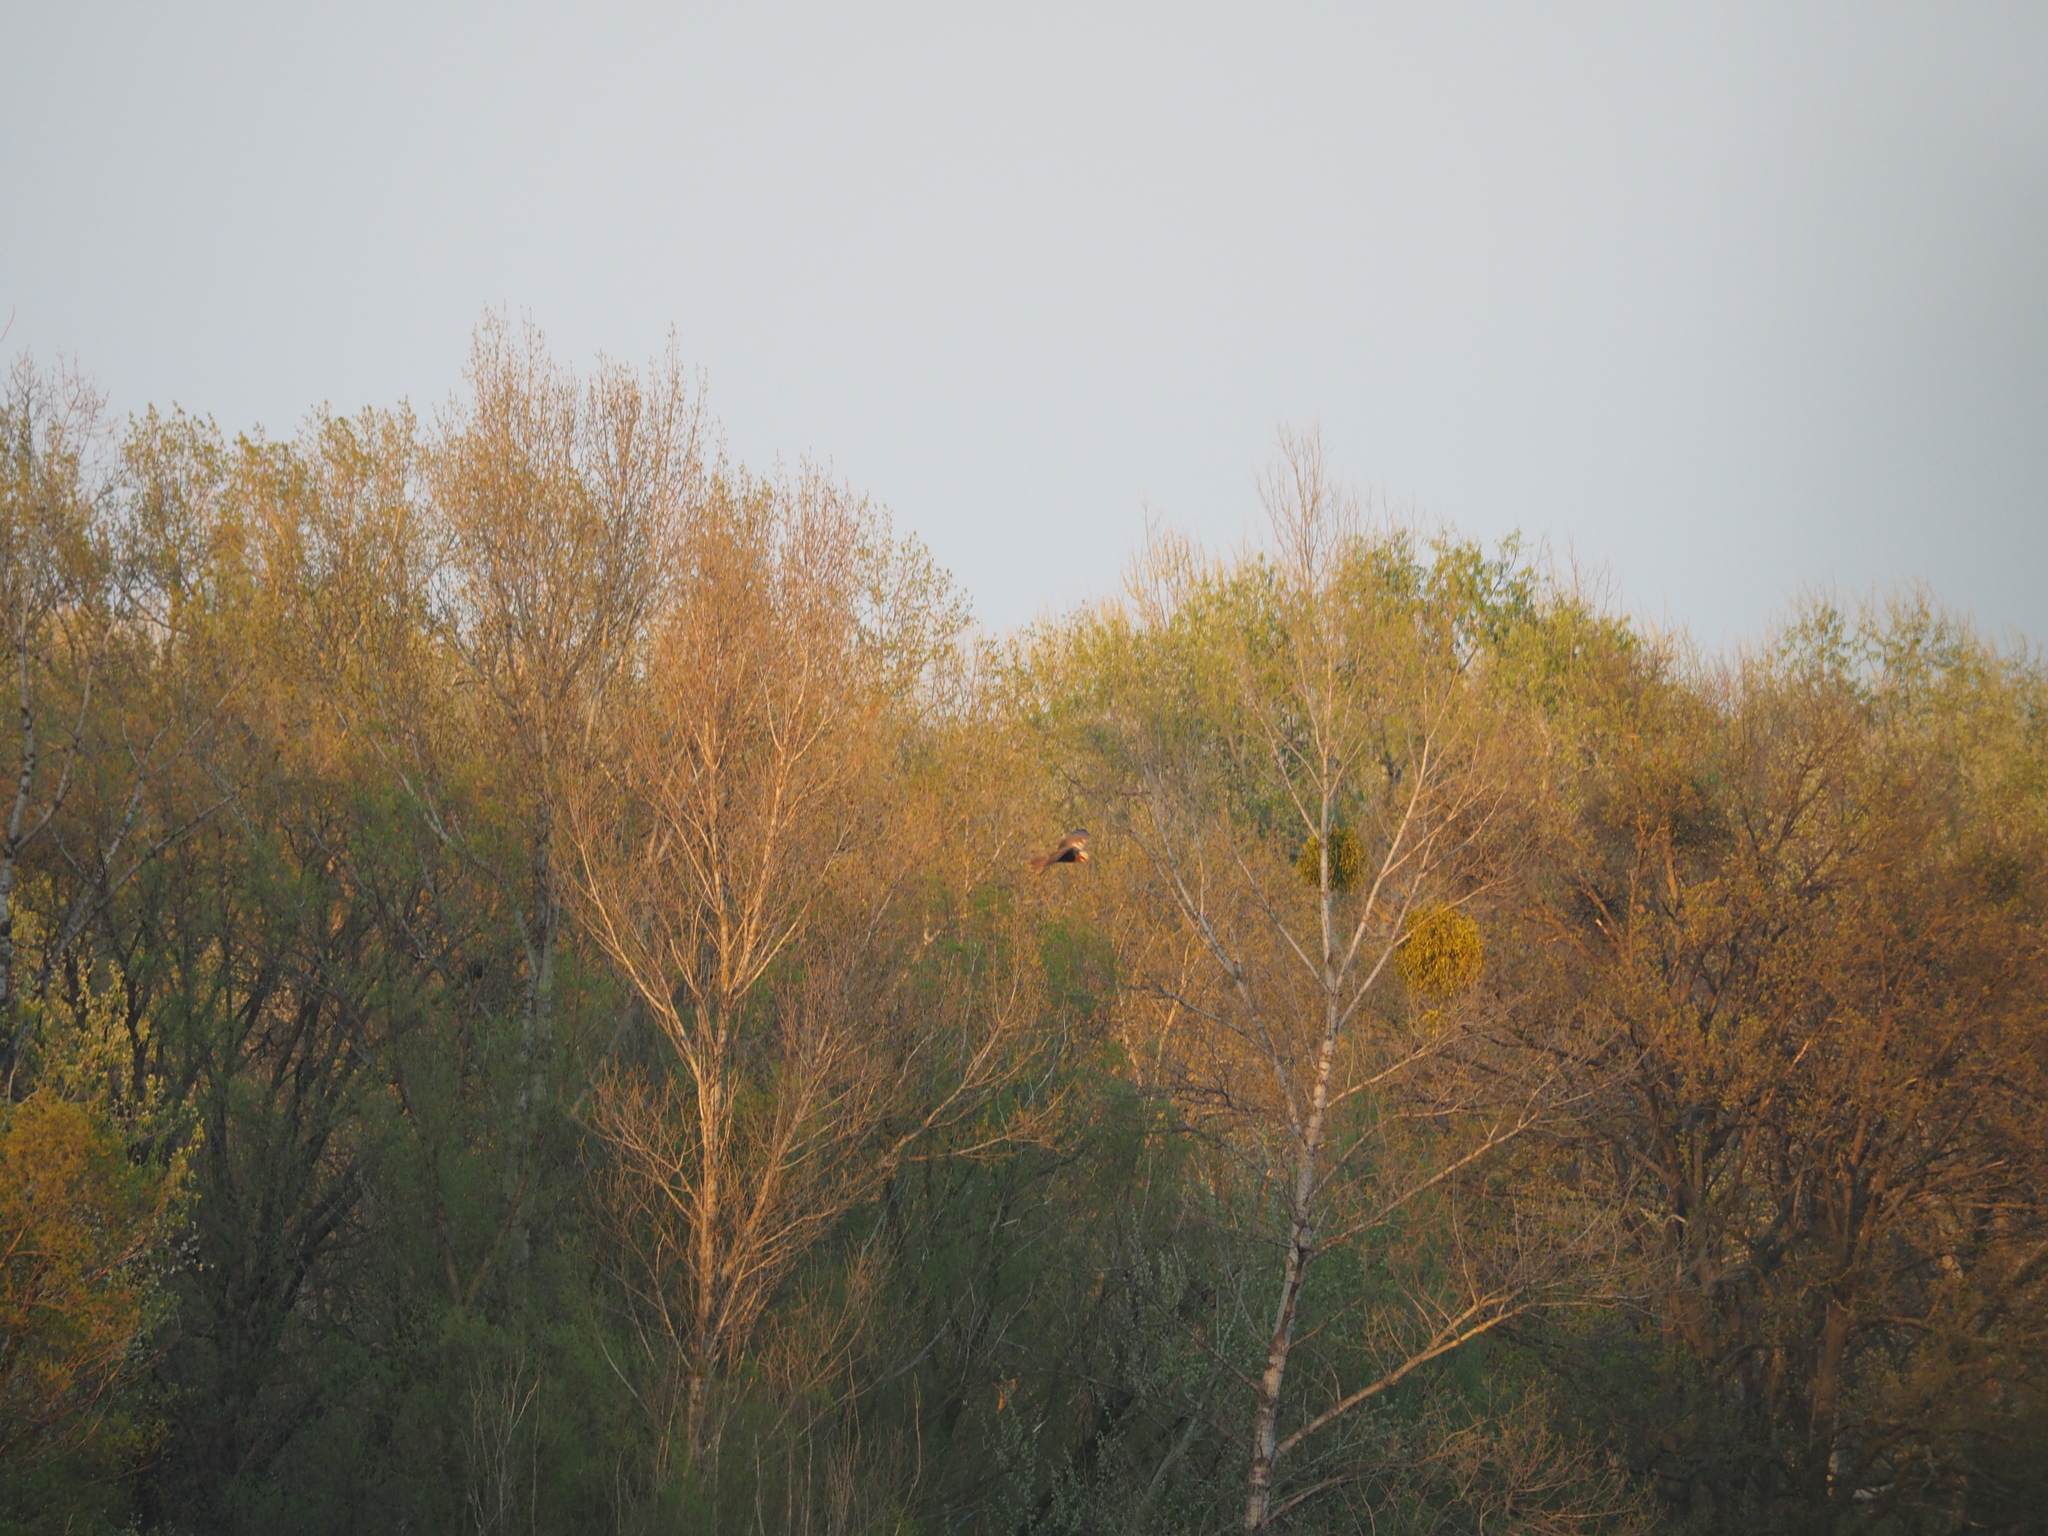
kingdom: Animalia
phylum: Chordata
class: Aves
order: Accipitriformes
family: Accipitridae
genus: Circus
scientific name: Circus aeruginosus
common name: Western marsh harrier
